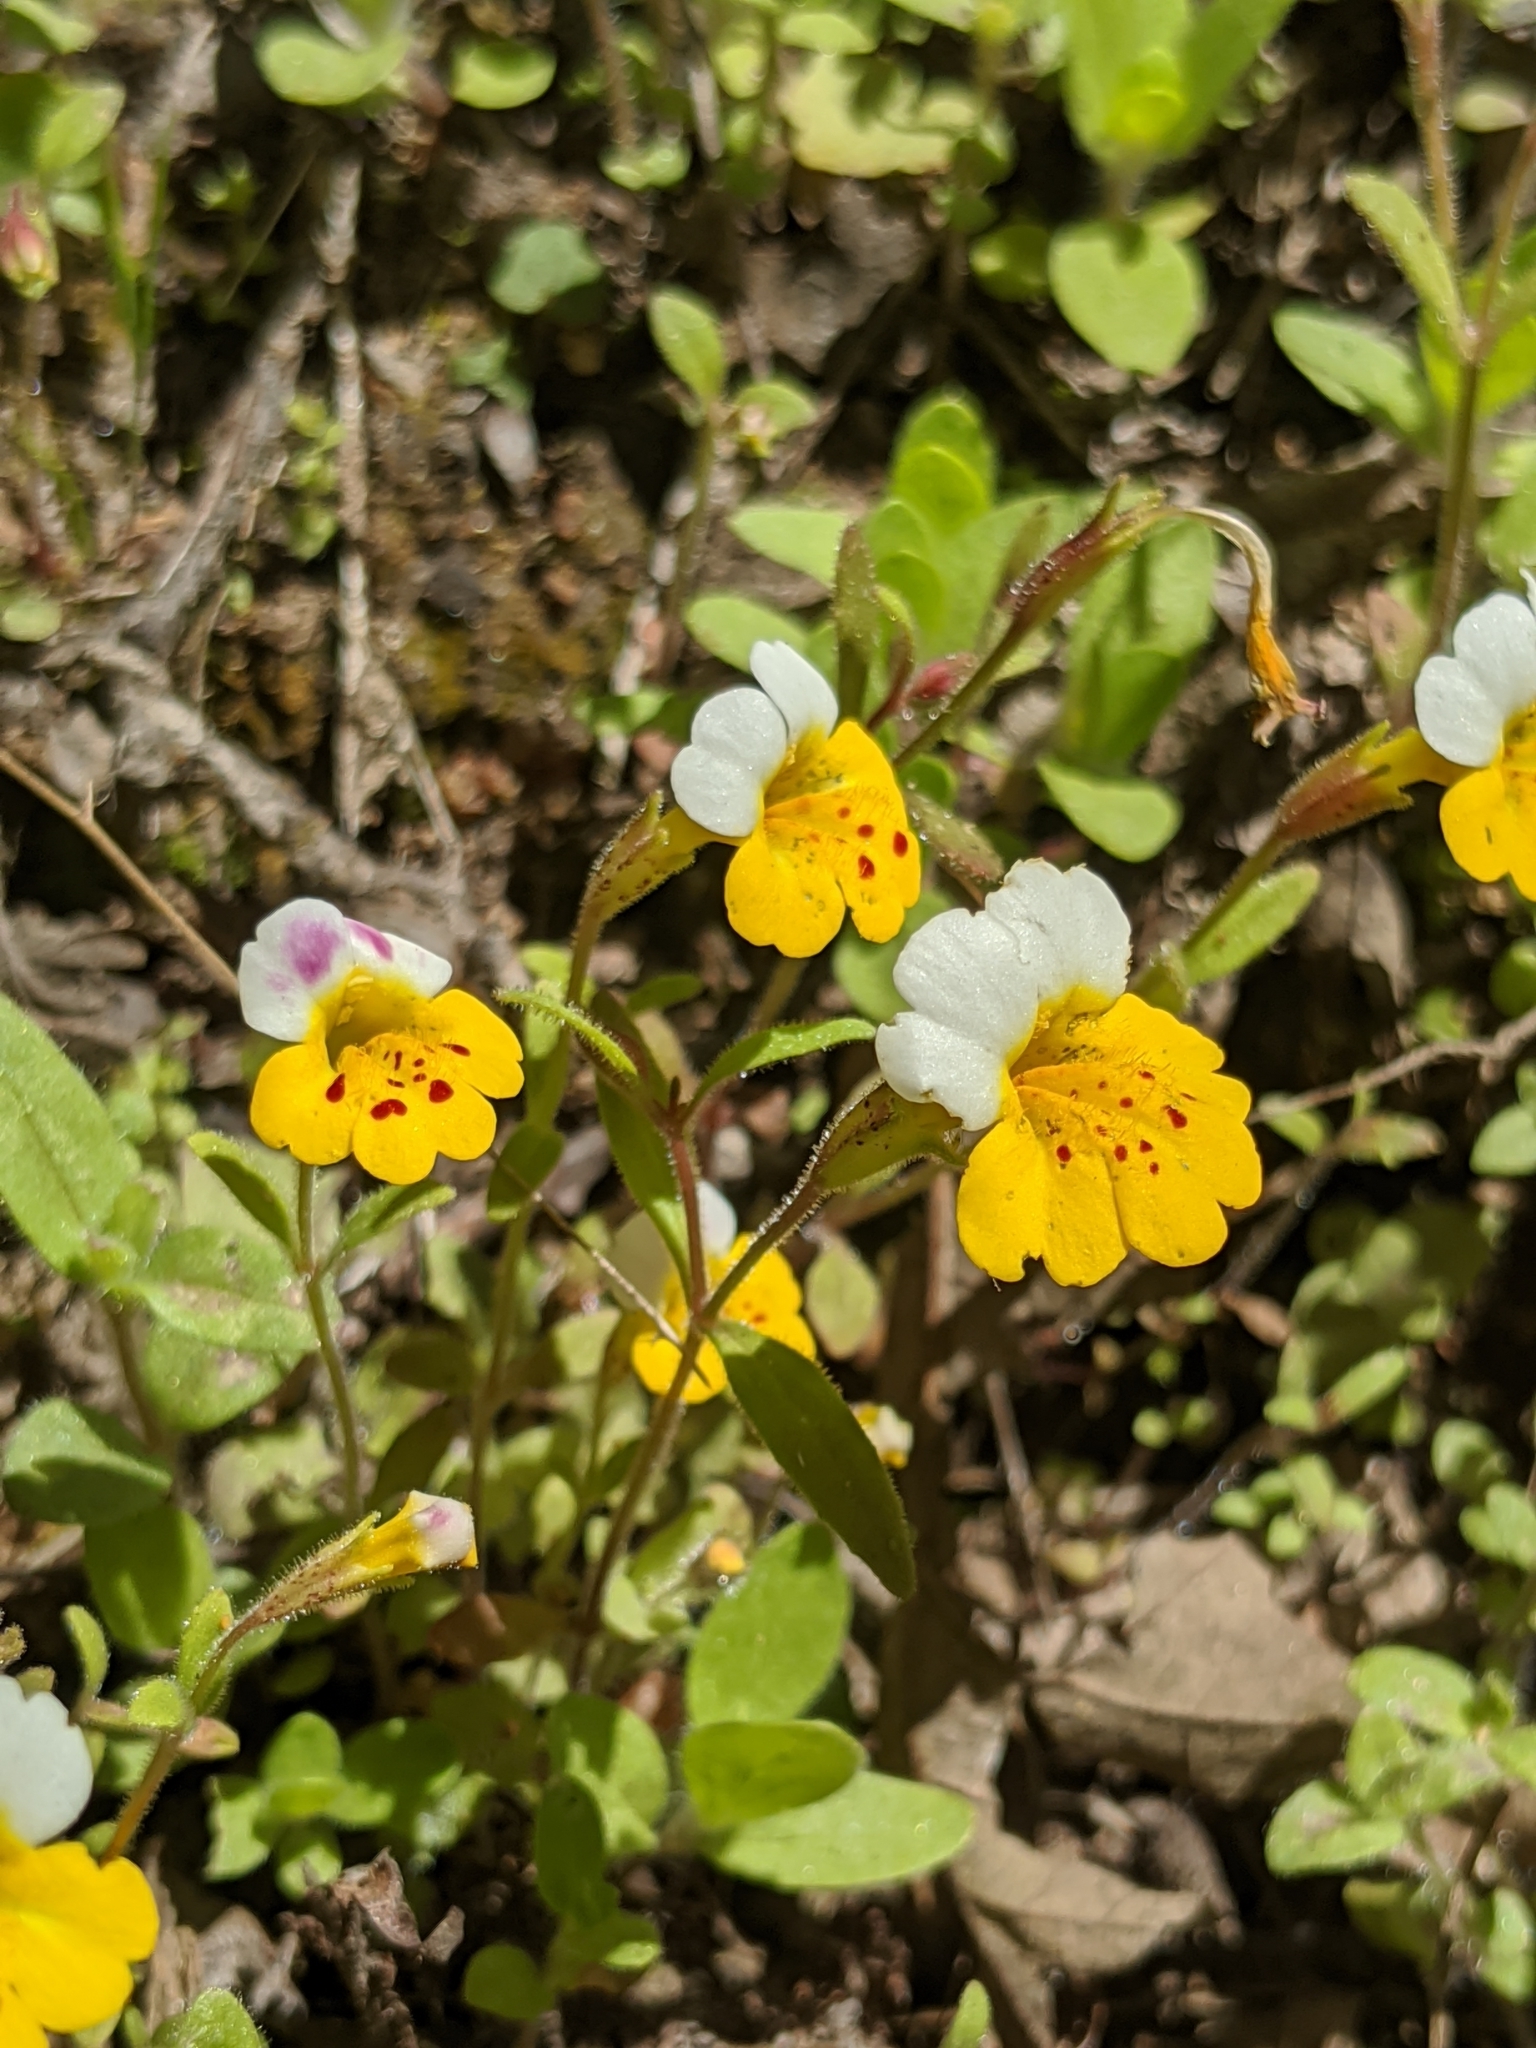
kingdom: Plantae
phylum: Tracheophyta
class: Magnoliopsida
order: Lamiales
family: Phrymaceae
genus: Erythranthe
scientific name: Erythranthe bicolor
